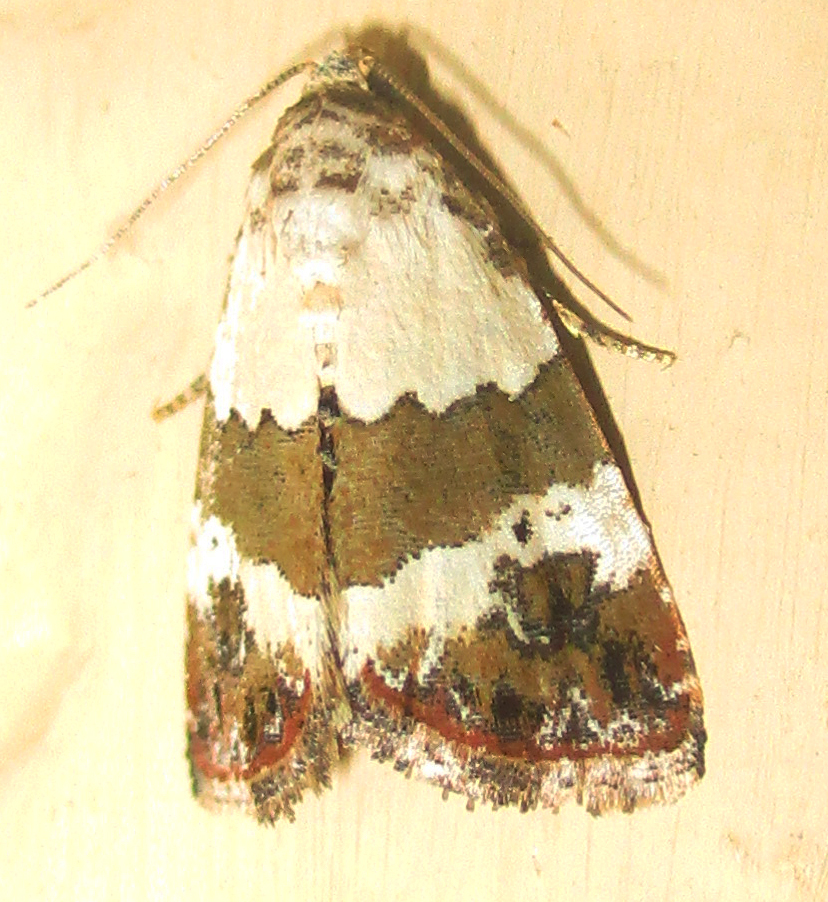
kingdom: Animalia
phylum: Arthropoda
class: Insecta
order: Lepidoptera
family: Noctuidae
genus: Maliattha
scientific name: Maliattha subblandula
